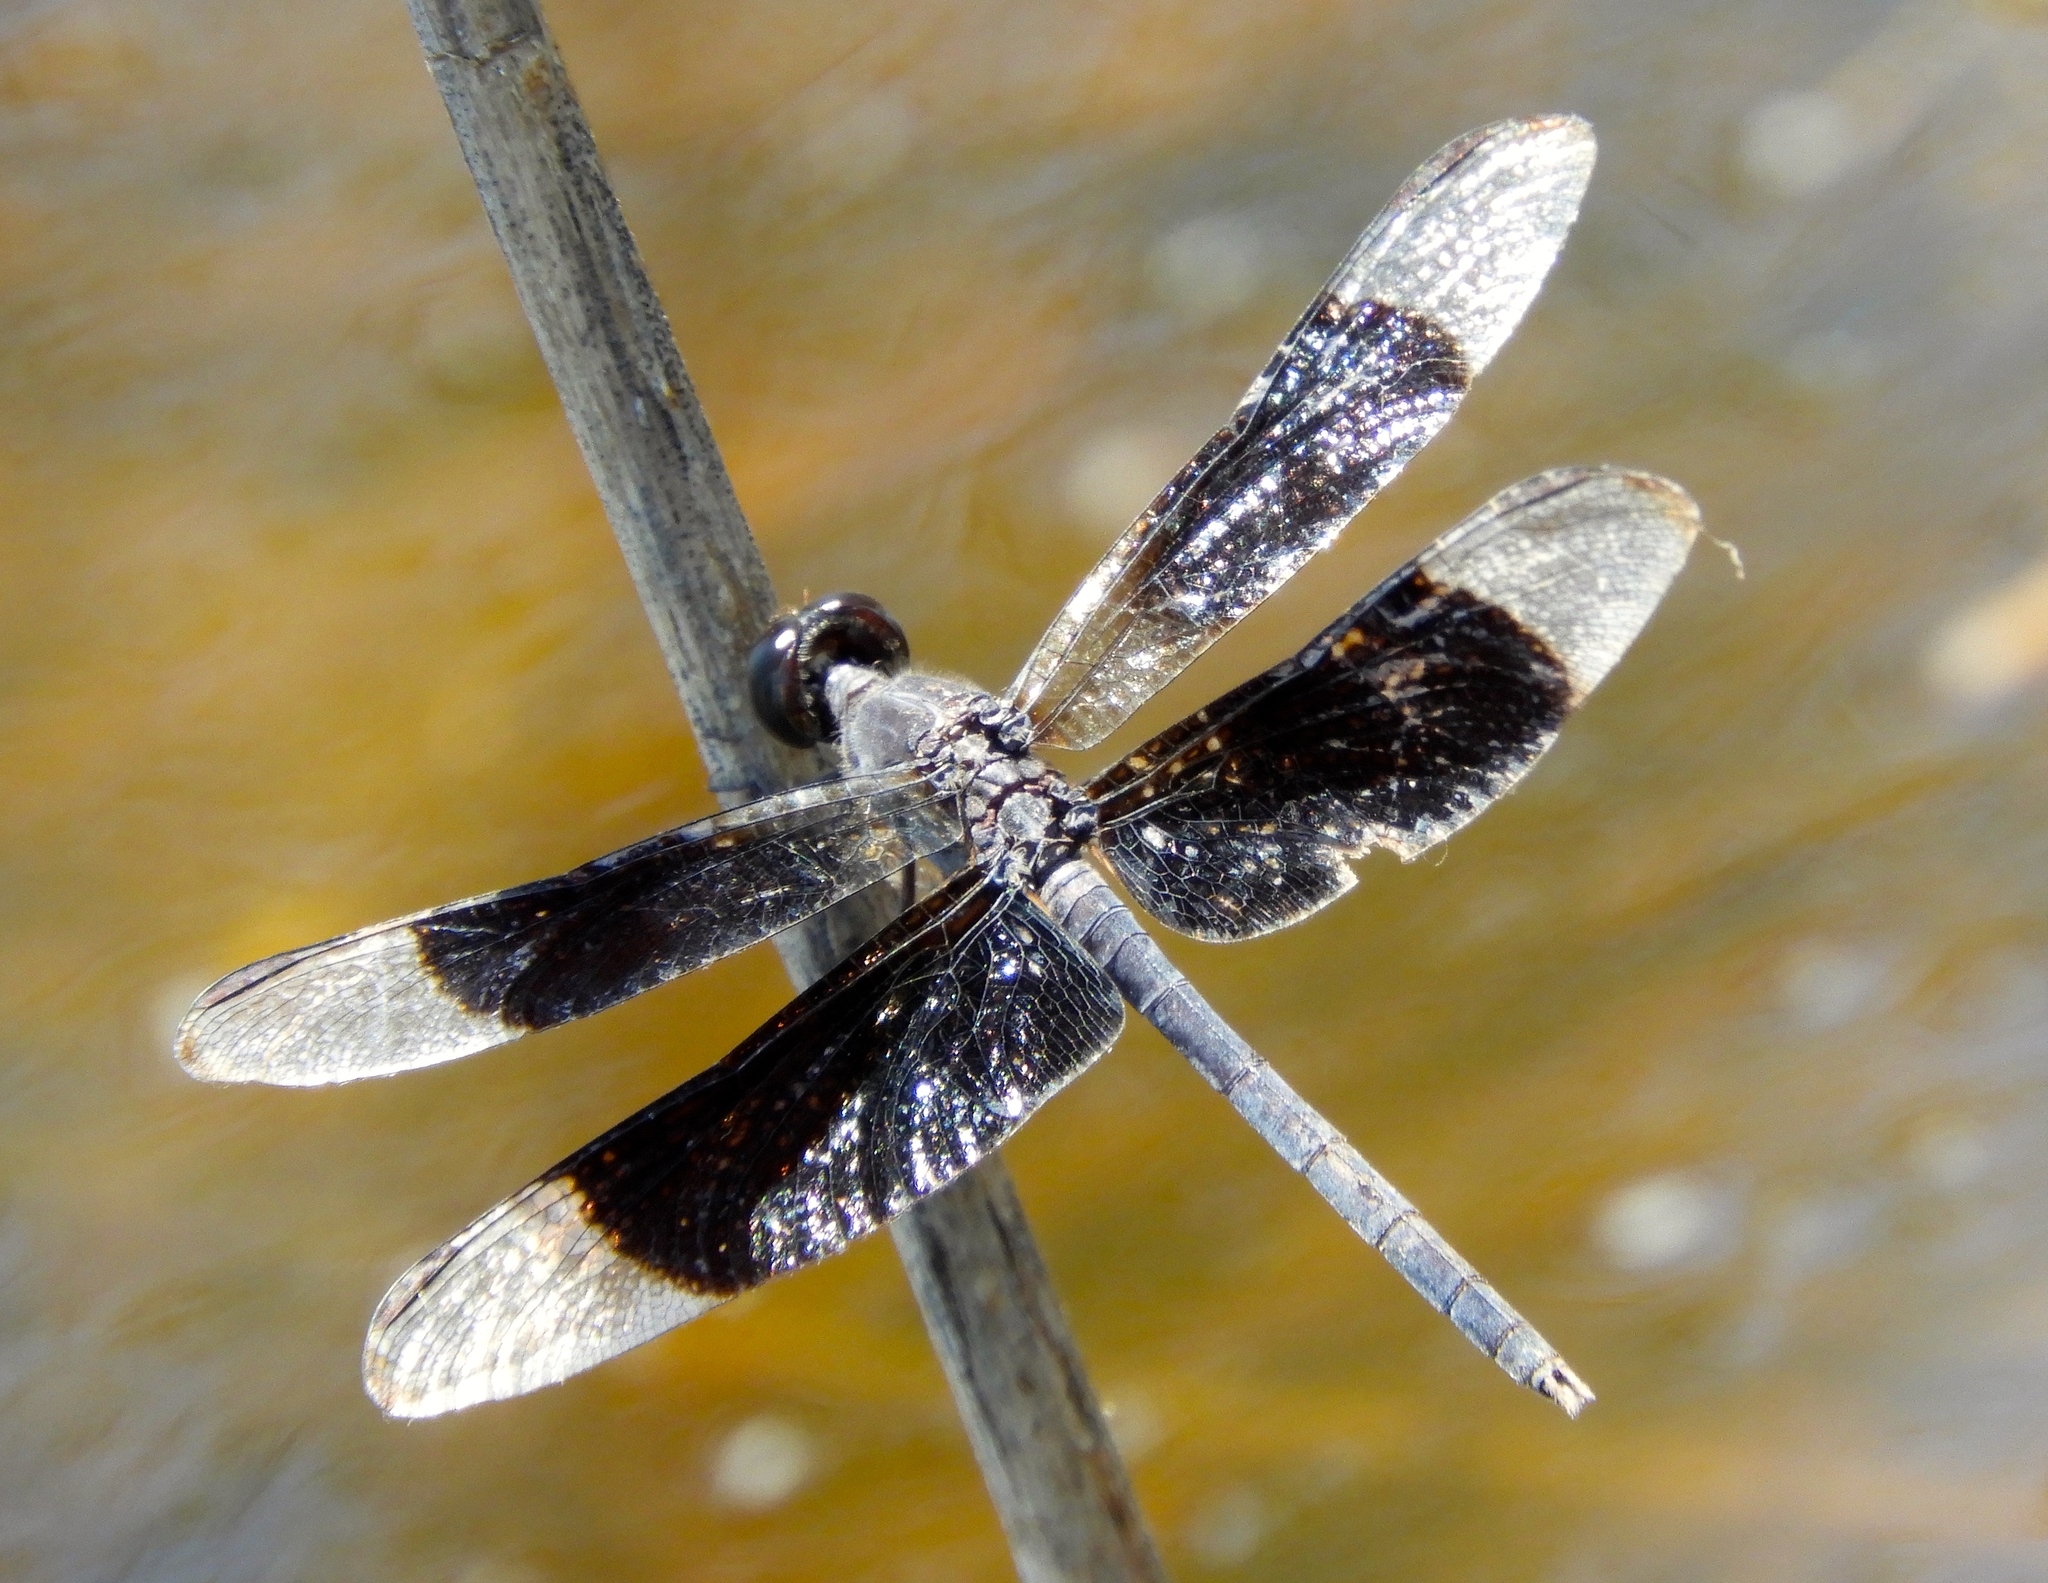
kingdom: Animalia
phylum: Arthropoda
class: Insecta
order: Odonata
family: Libellulidae
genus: Erythrodiplax
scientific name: Erythrodiplax funerea
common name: Black-winged dragonlet
